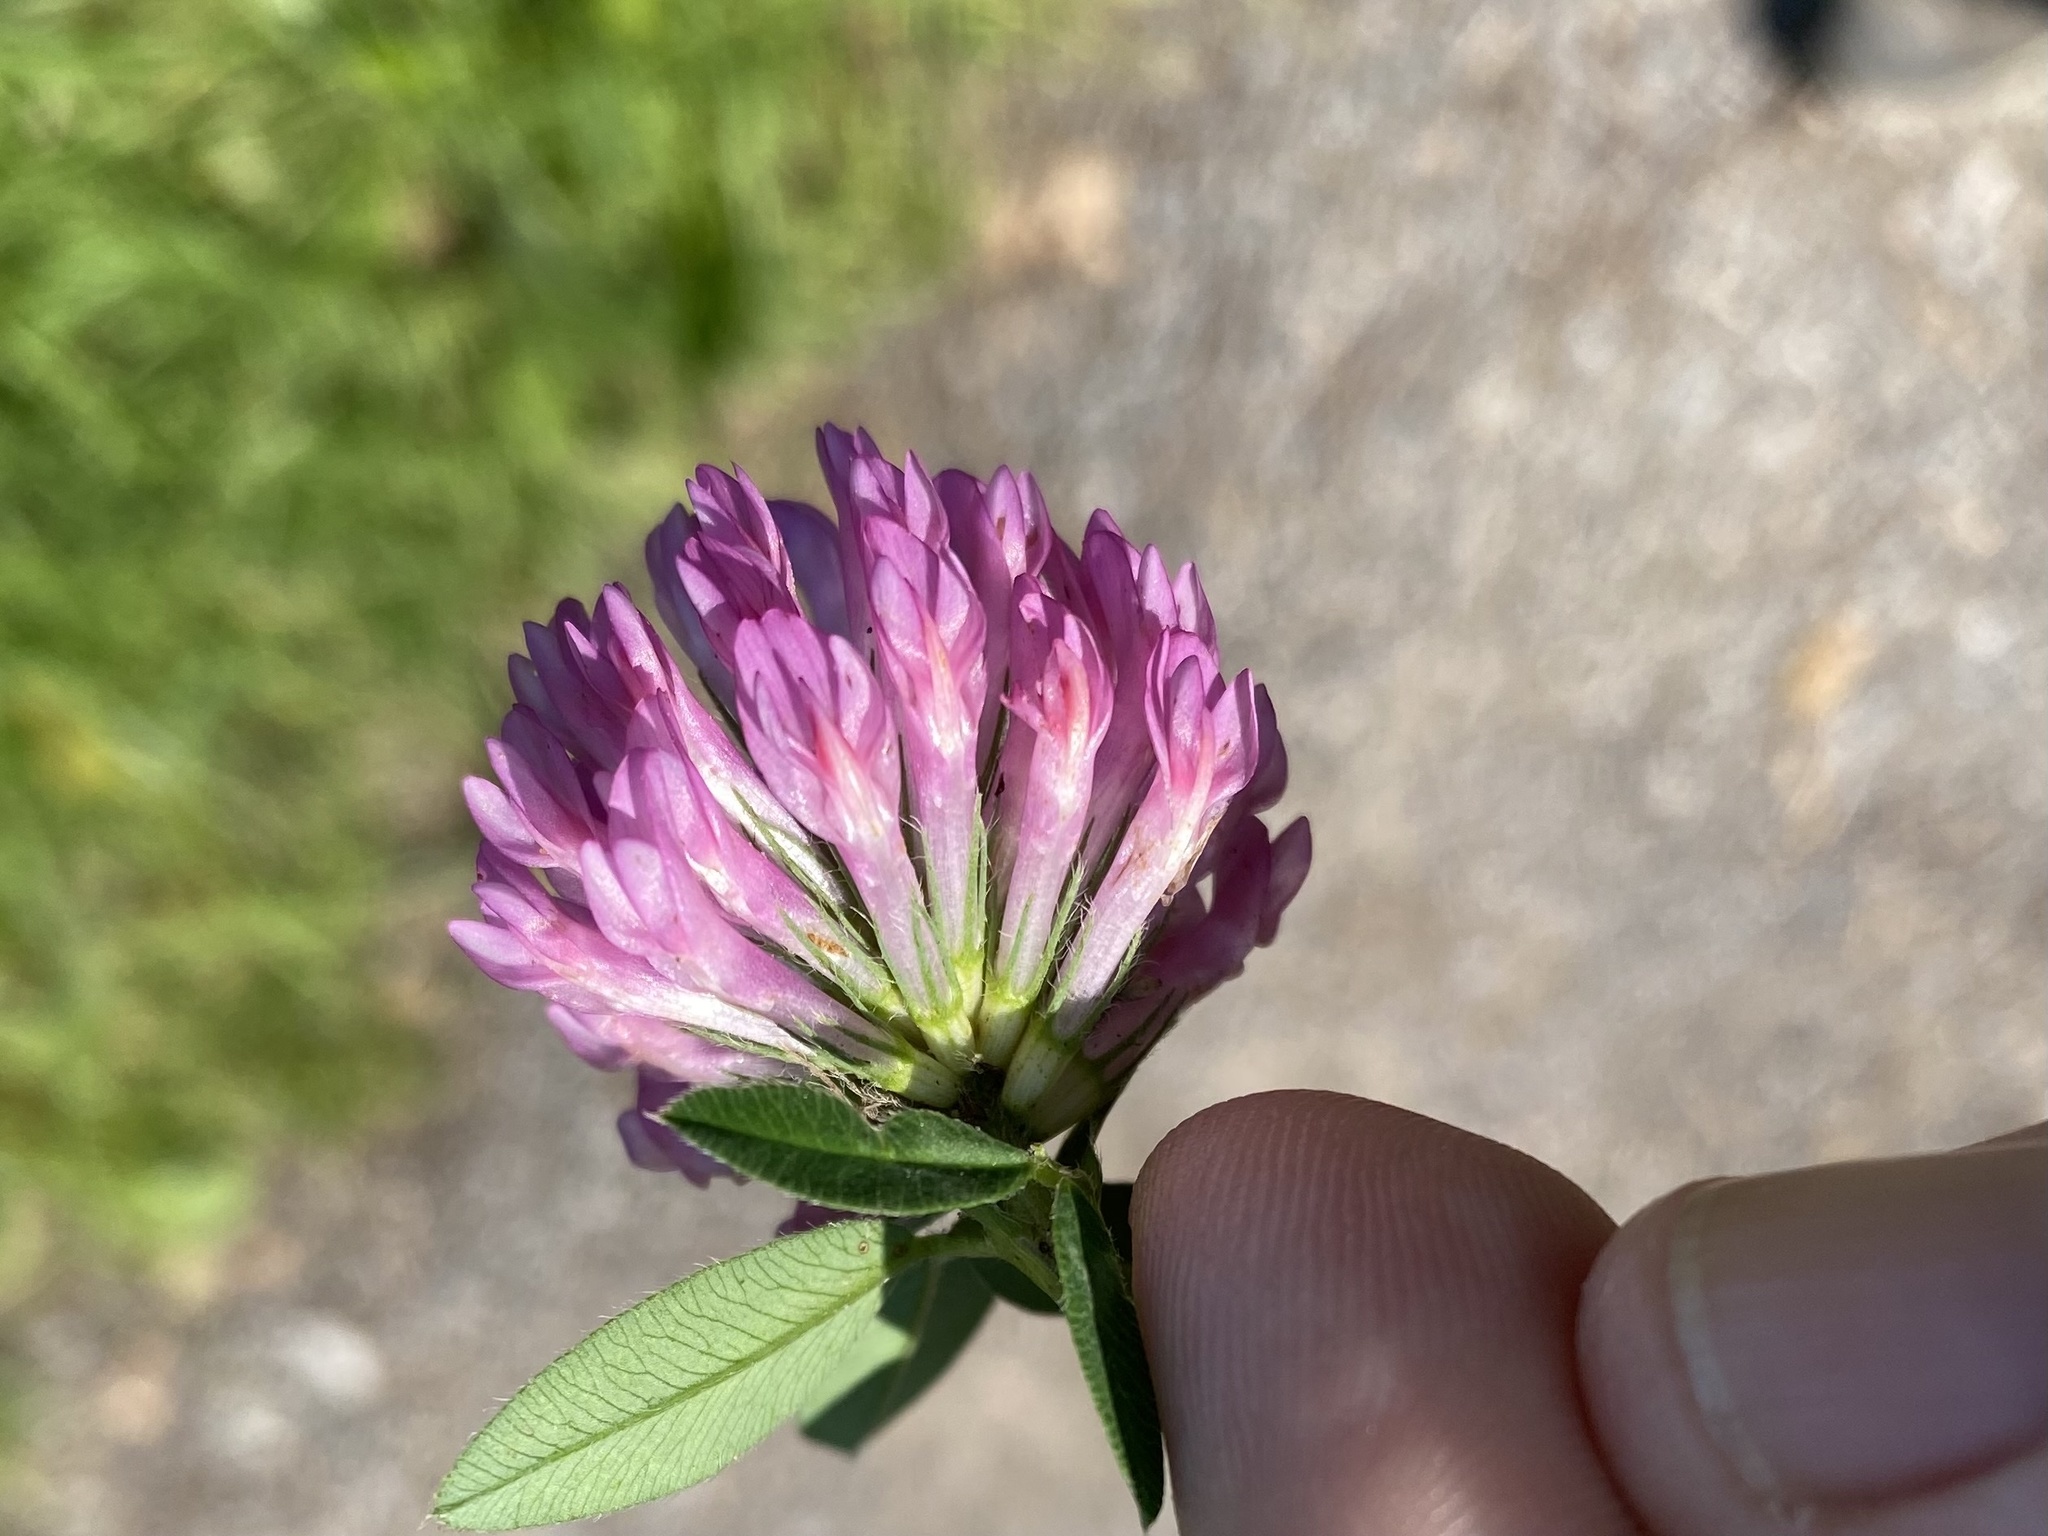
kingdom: Plantae
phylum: Tracheophyta
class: Magnoliopsida
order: Fabales
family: Fabaceae
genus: Trifolium
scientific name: Trifolium medium
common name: Zigzag clover
